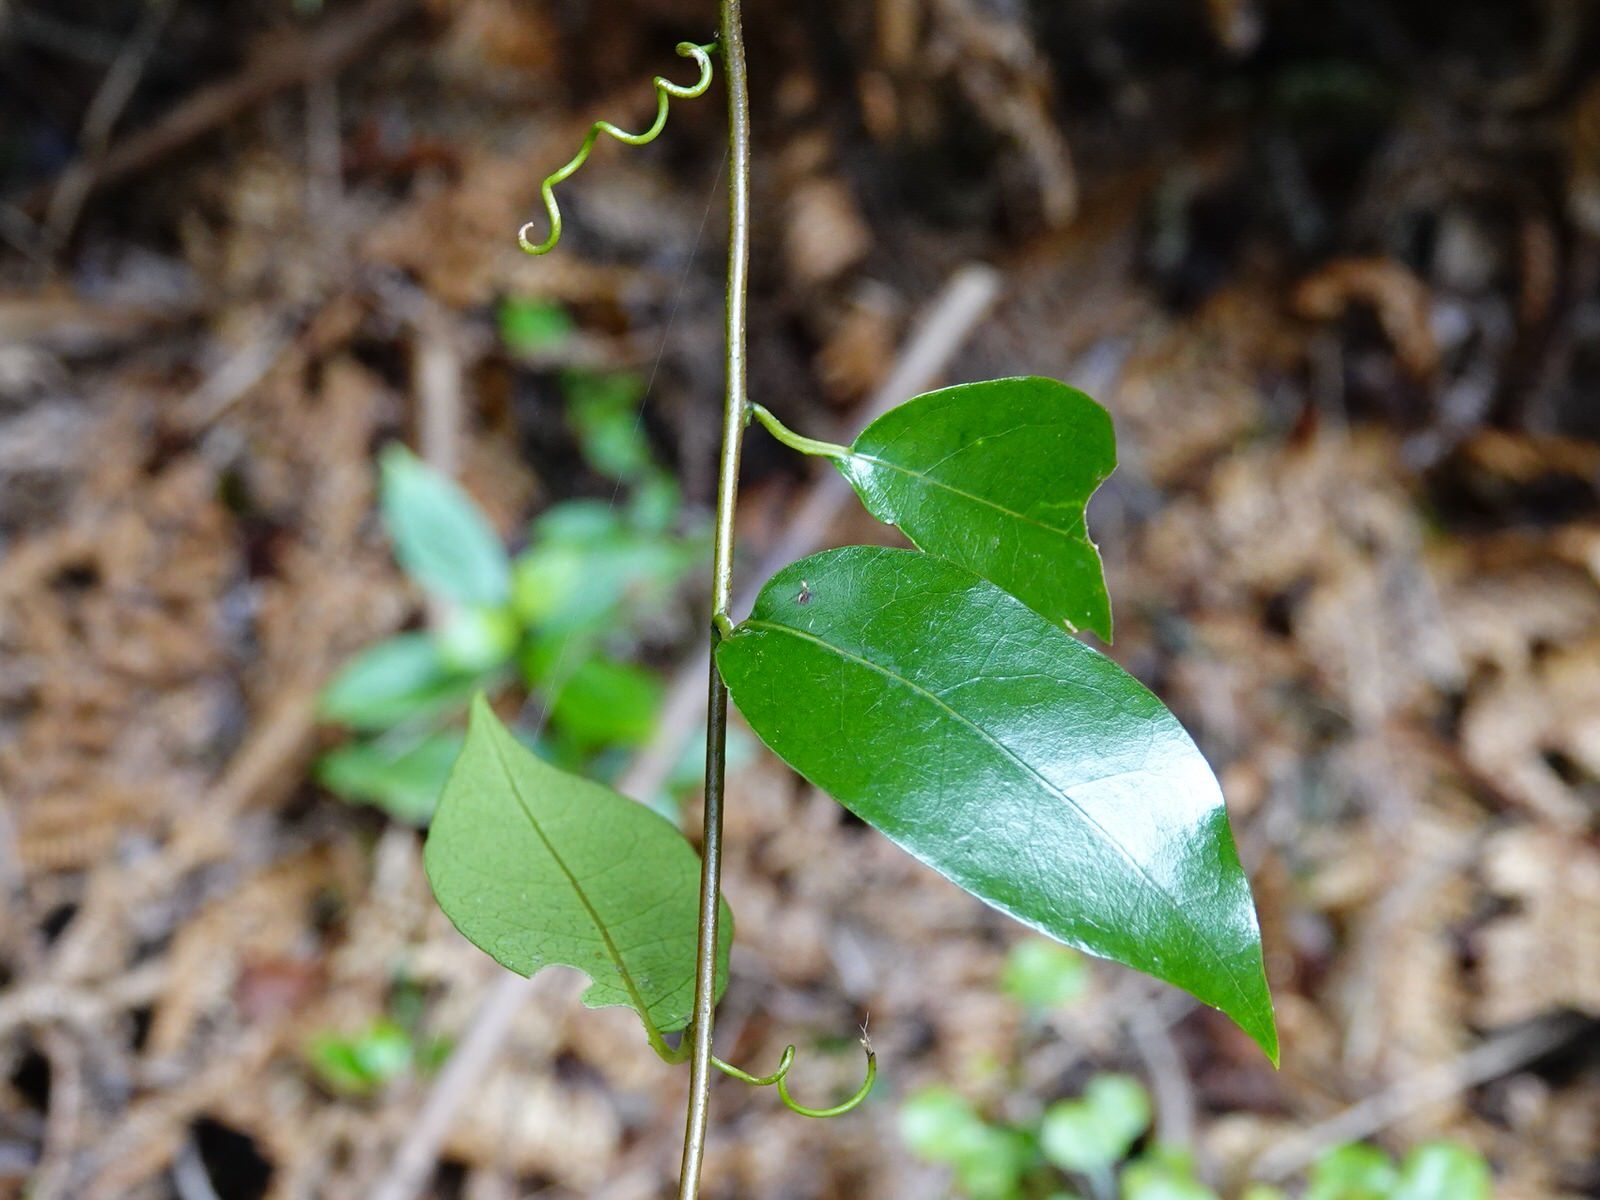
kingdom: Plantae
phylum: Tracheophyta
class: Magnoliopsida
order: Malpighiales
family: Passifloraceae
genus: Passiflora
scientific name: Passiflora tetrandra
